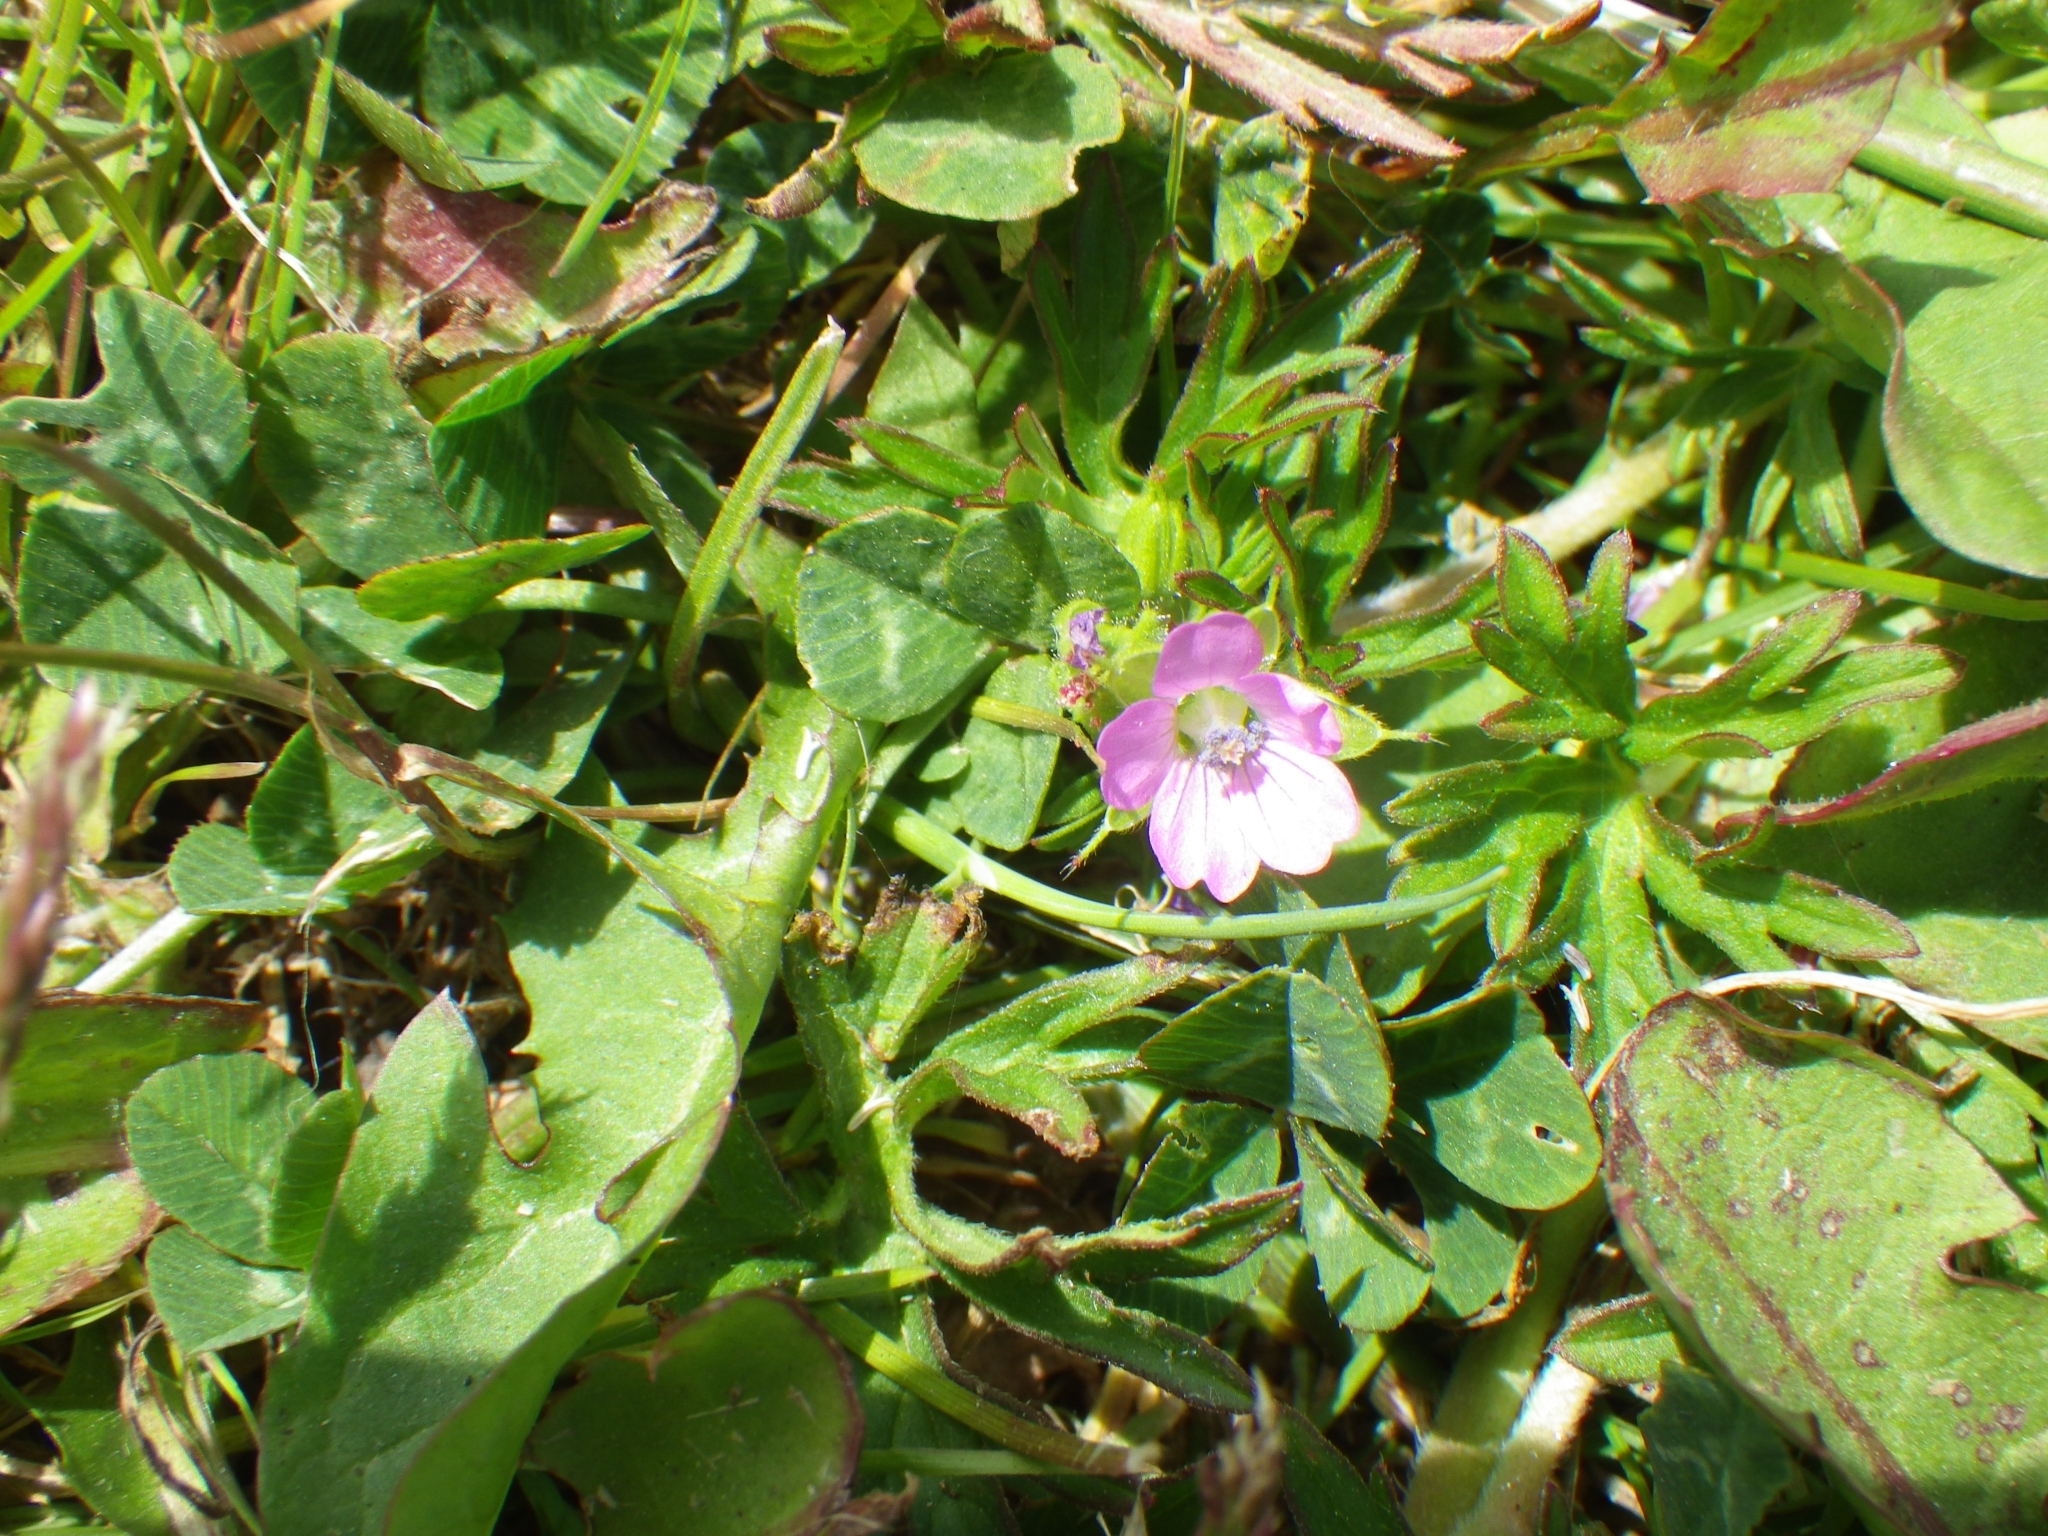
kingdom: Plantae
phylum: Tracheophyta
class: Magnoliopsida
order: Geraniales
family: Geraniaceae
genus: Geranium
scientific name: Geranium dissectum
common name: Cut-leaved crane's-bill
